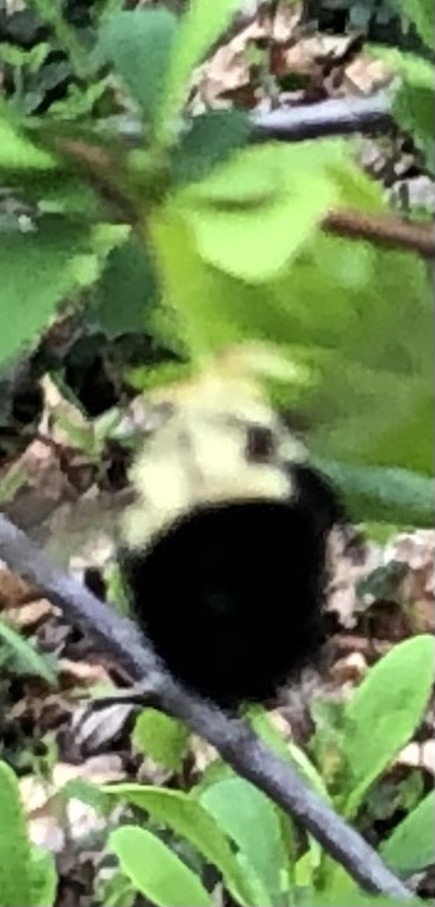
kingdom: Animalia
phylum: Arthropoda
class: Insecta
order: Hymenoptera
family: Apidae
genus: Bombus
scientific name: Bombus impatiens
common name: Common eastern bumble bee
